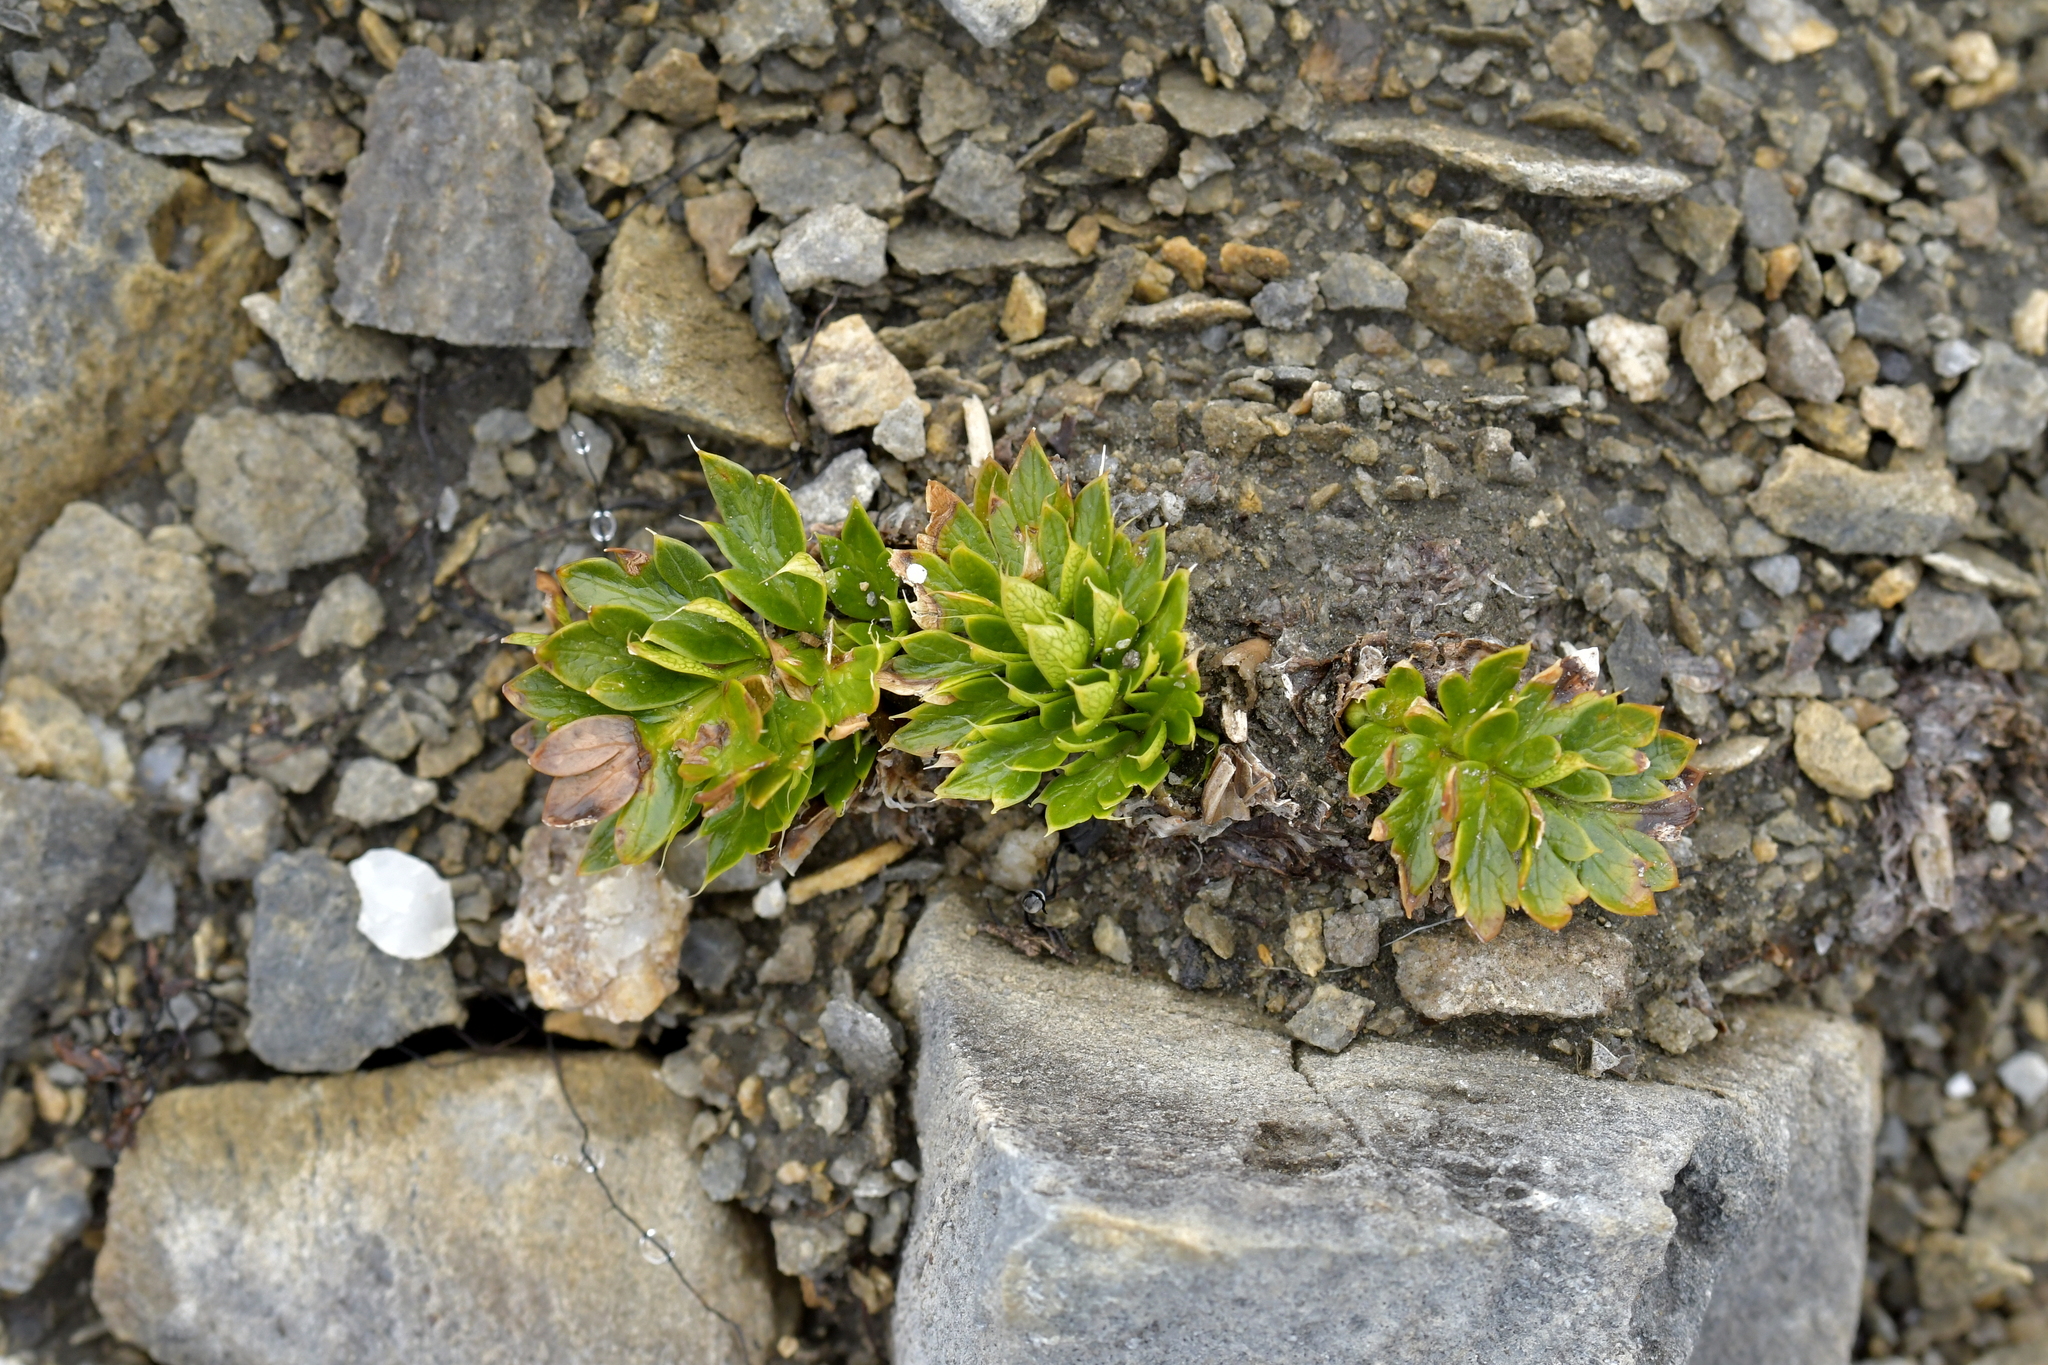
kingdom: Plantae
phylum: Tracheophyta
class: Magnoliopsida
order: Apiales
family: Apiaceae
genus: Anisotome
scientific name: Anisotome pilifera
